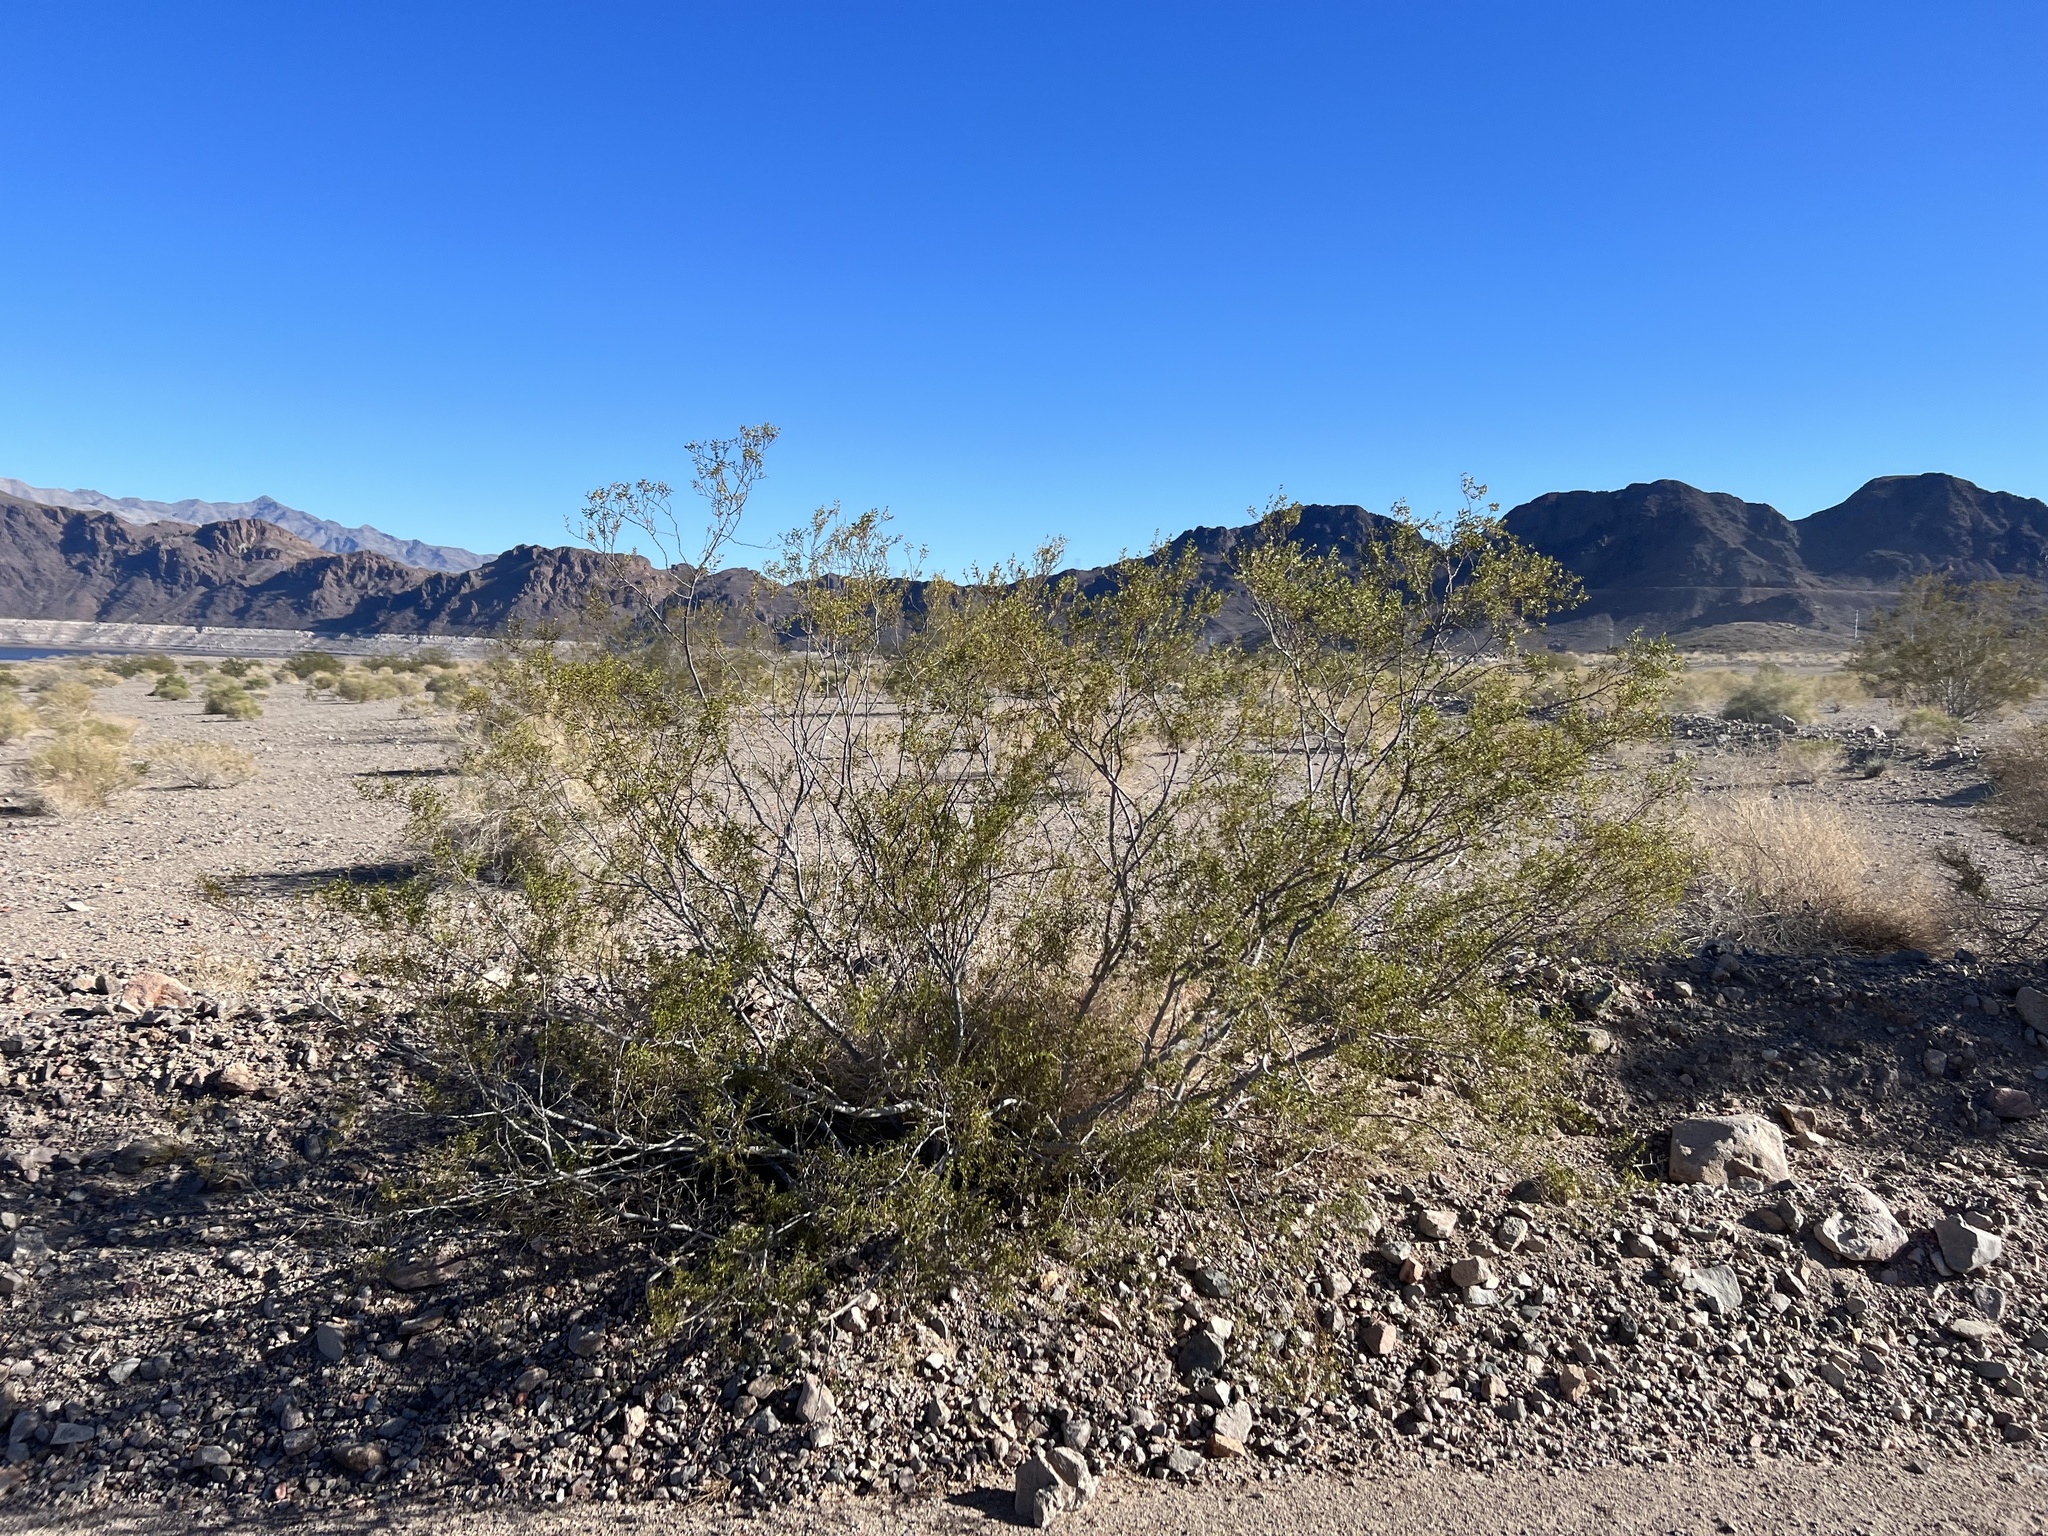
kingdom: Plantae
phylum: Tracheophyta
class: Magnoliopsida
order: Zygophyllales
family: Zygophyllaceae
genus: Larrea
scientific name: Larrea tridentata
